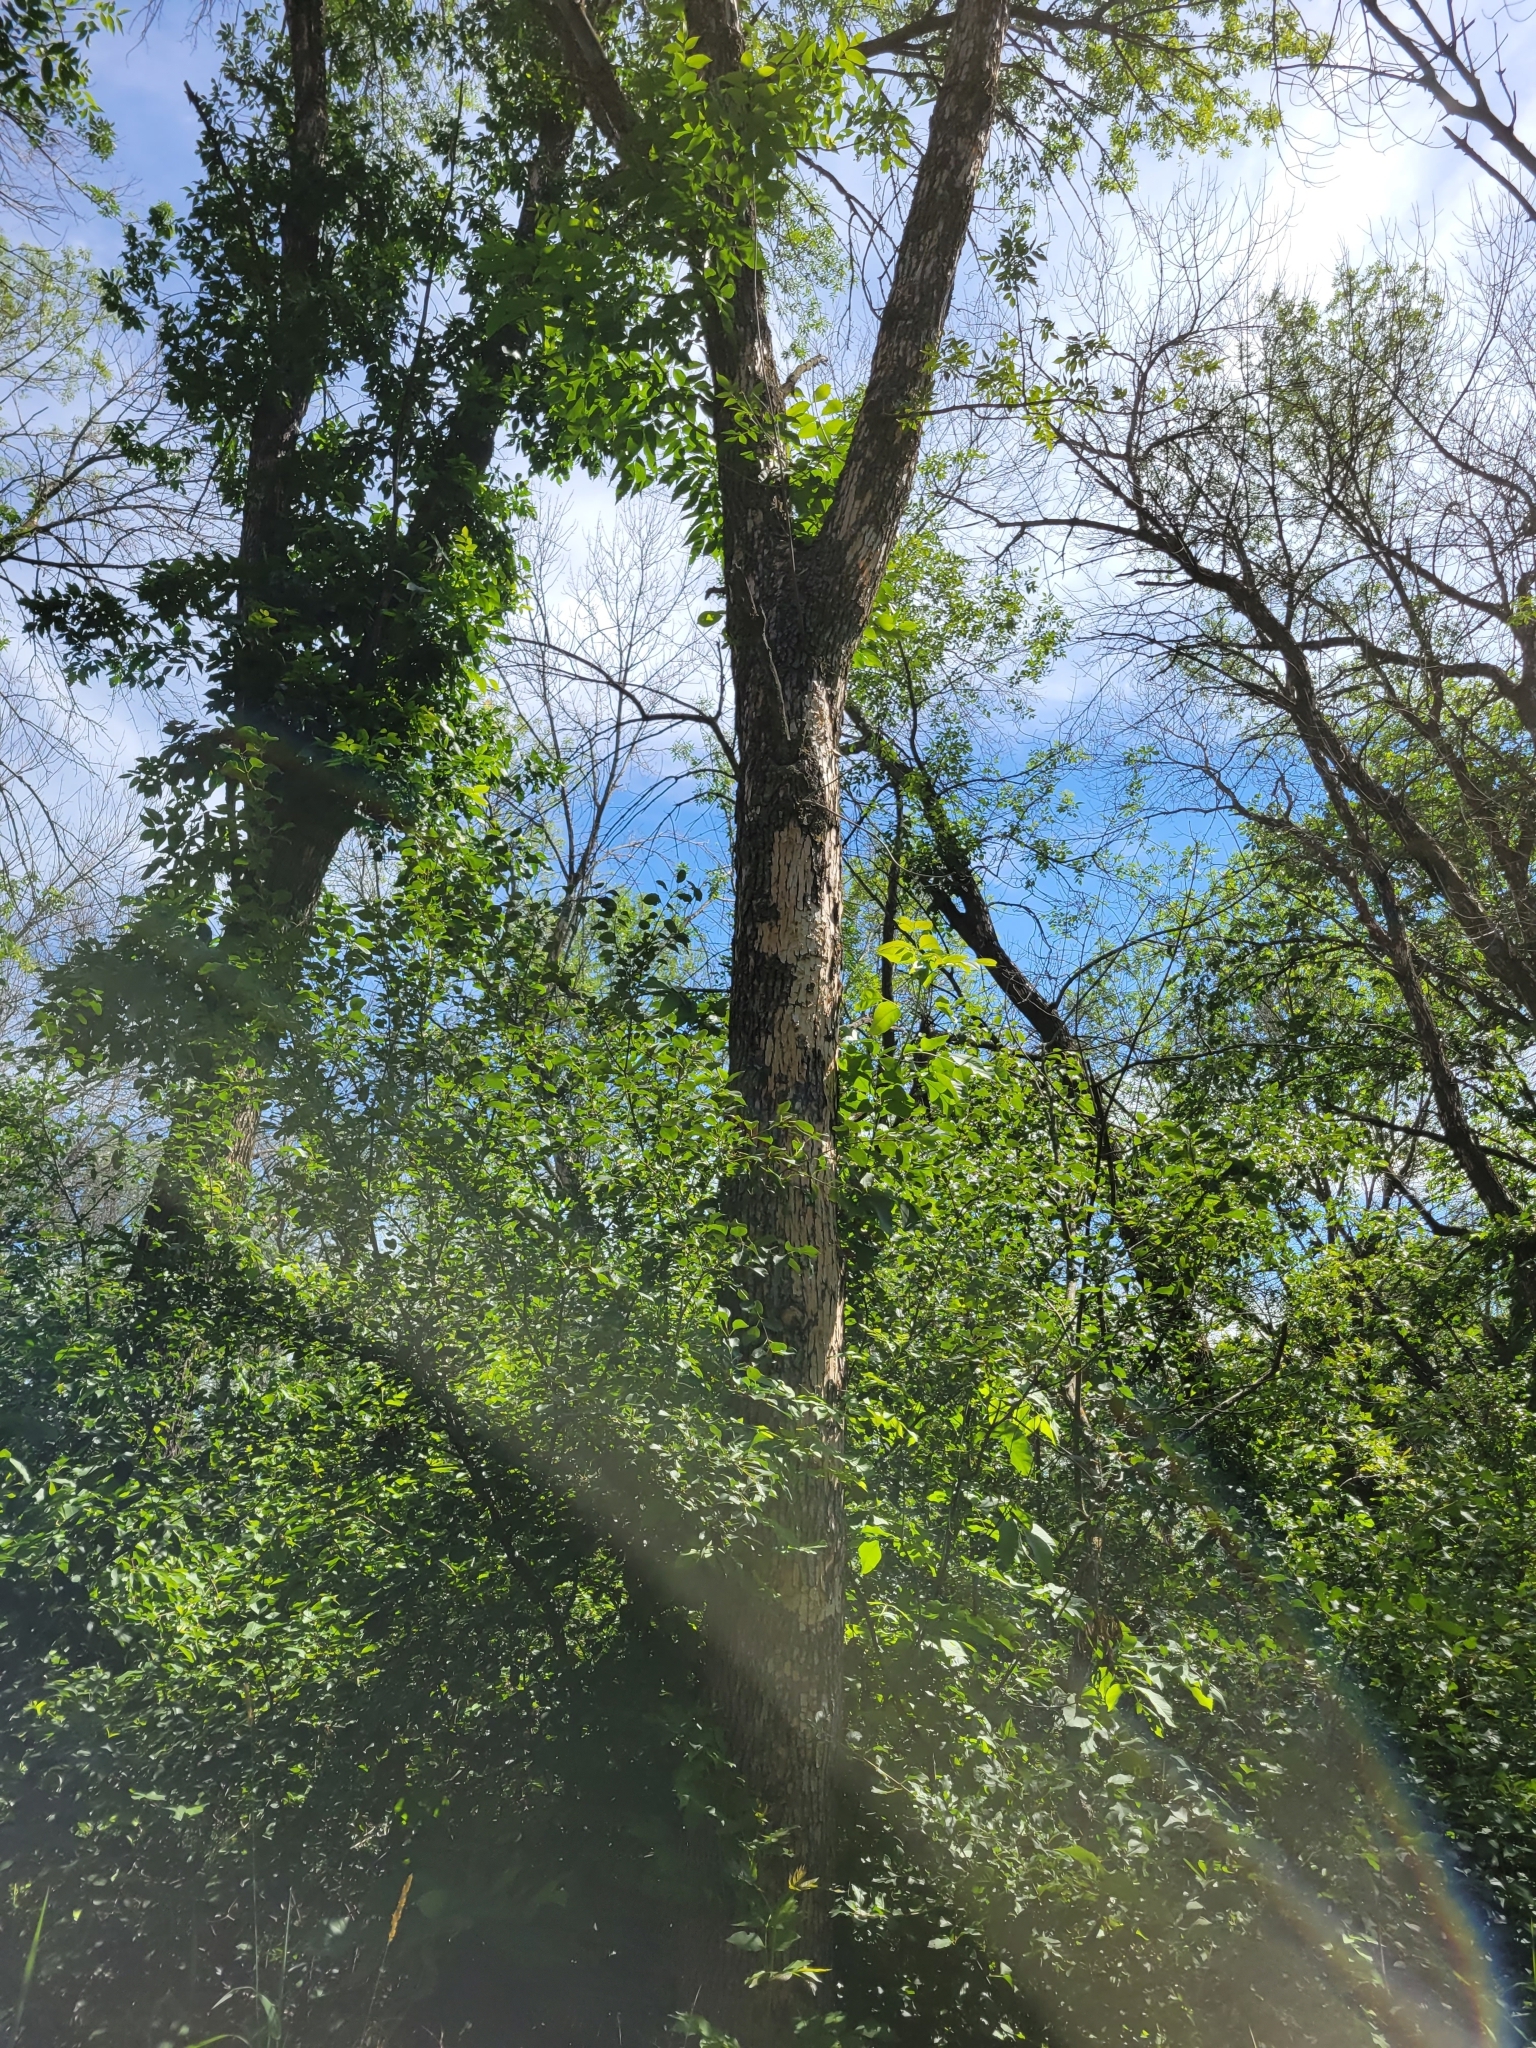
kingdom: Animalia
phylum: Arthropoda
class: Insecta
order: Coleoptera
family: Buprestidae
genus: Agrilus
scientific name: Agrilus planipennis
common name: Emerald ash borer
